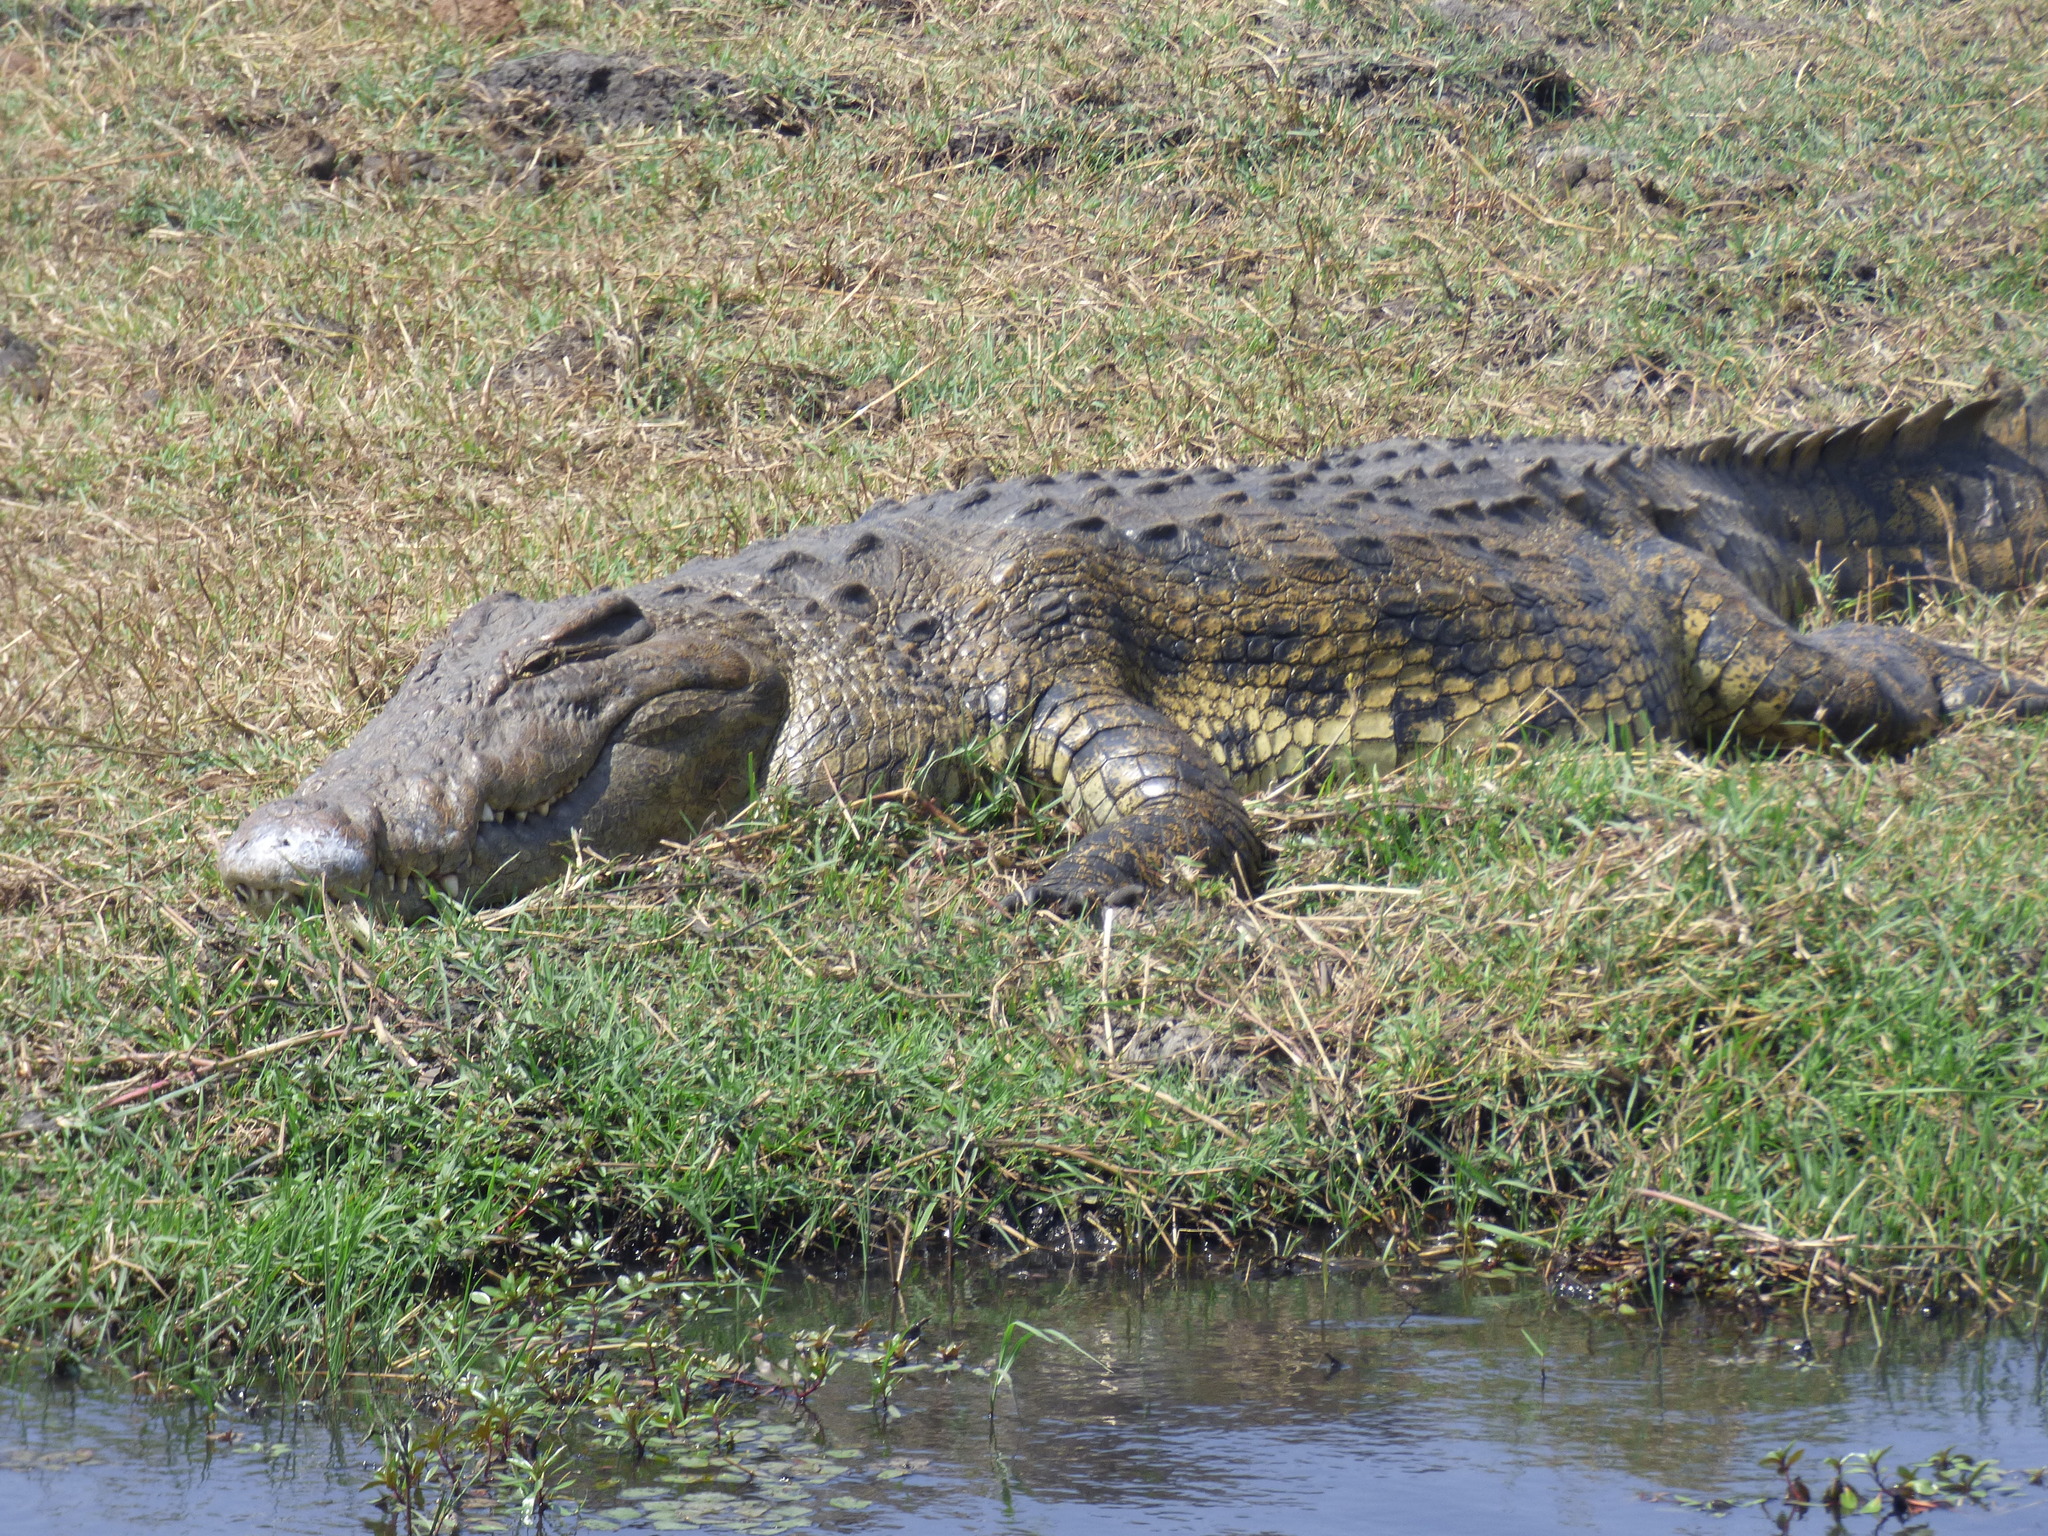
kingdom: Animalia
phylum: Chordata
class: Crocodylia
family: Crocodylidae
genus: Crocodylus
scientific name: Crocodylus niloticus
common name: Nile crocodile
